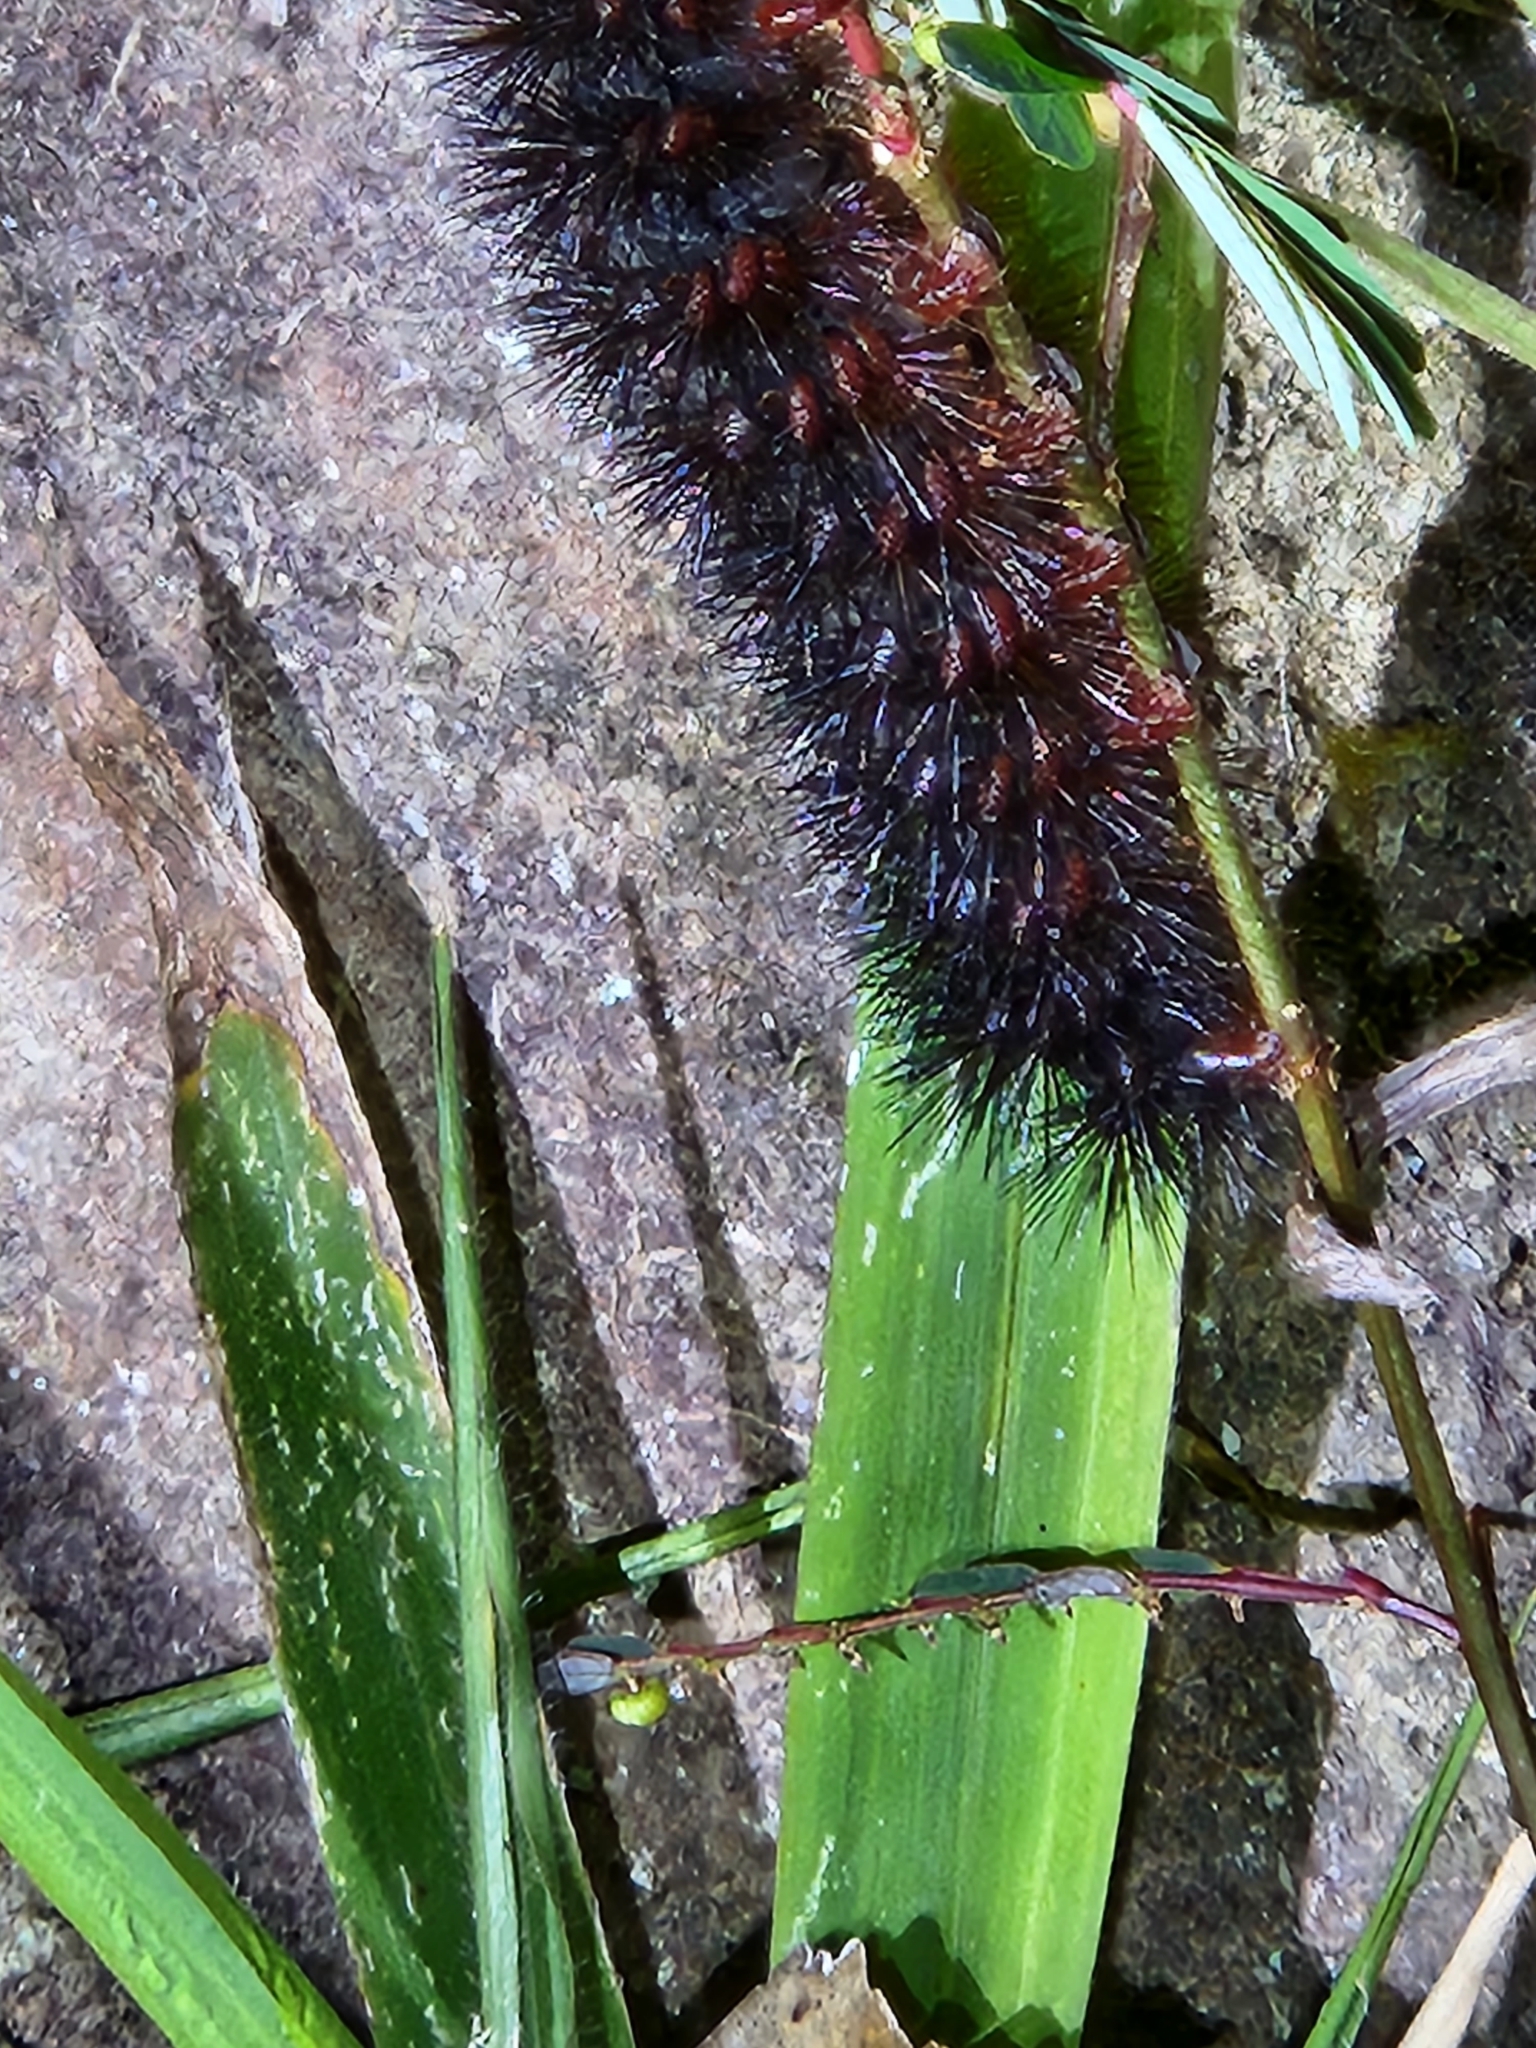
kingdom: Animalia
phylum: Arthropoda
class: Insecta
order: Lepidoptera
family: Erebidae
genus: Hypercompe
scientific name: Hypercompe scribonia
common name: Giant leopard moth
